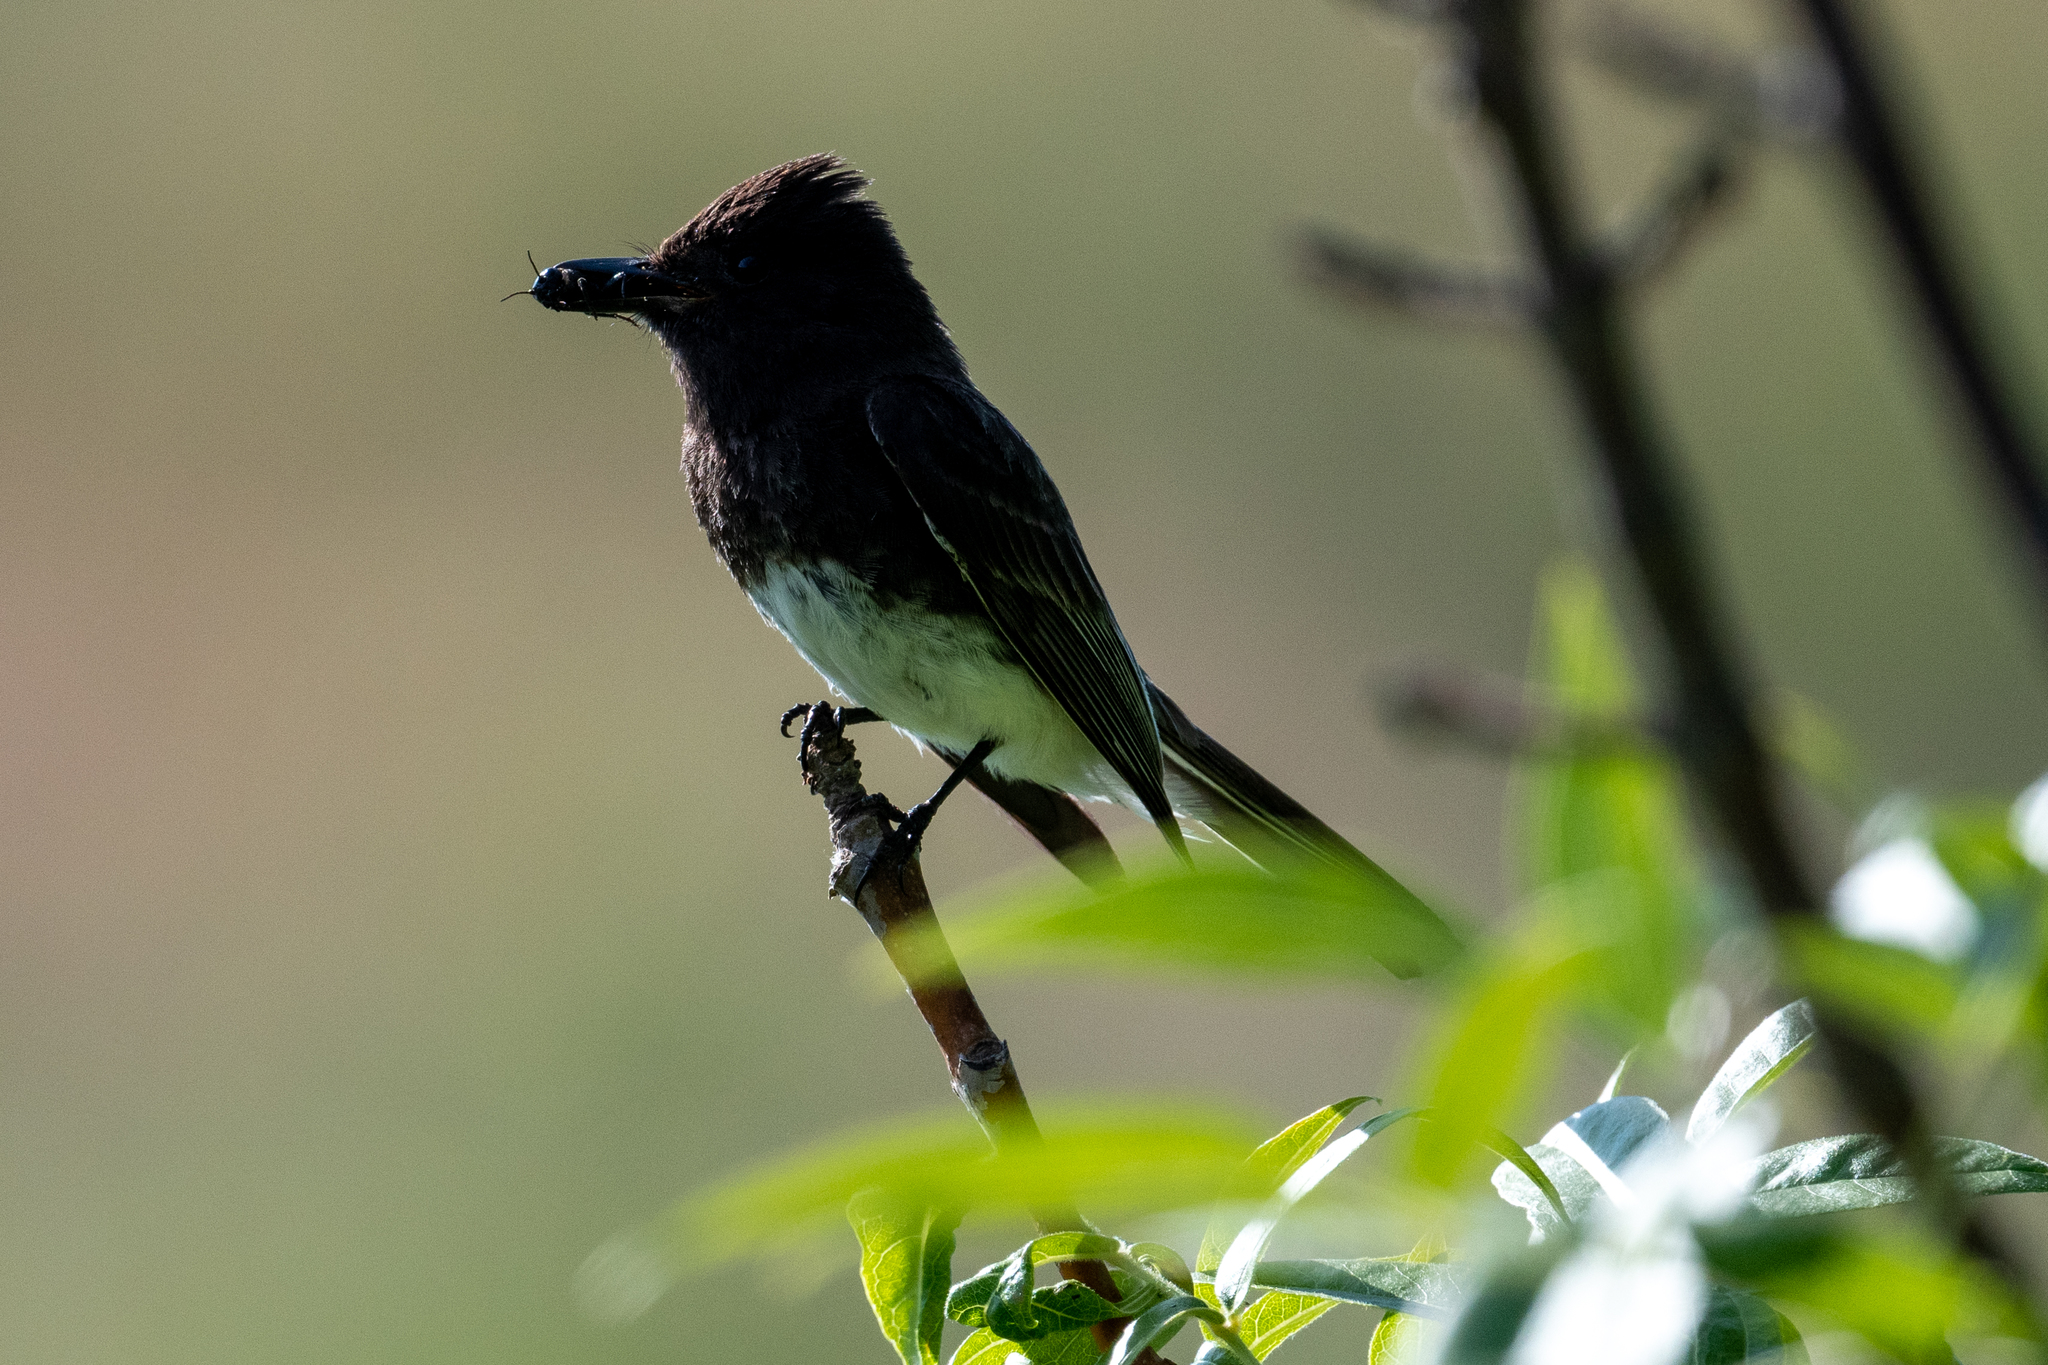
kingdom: Animalia
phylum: Chordata
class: Aves
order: Passeriformes
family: Tyrannidae
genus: Sayornis
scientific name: Sayornis nigricans
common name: Black phoebe
